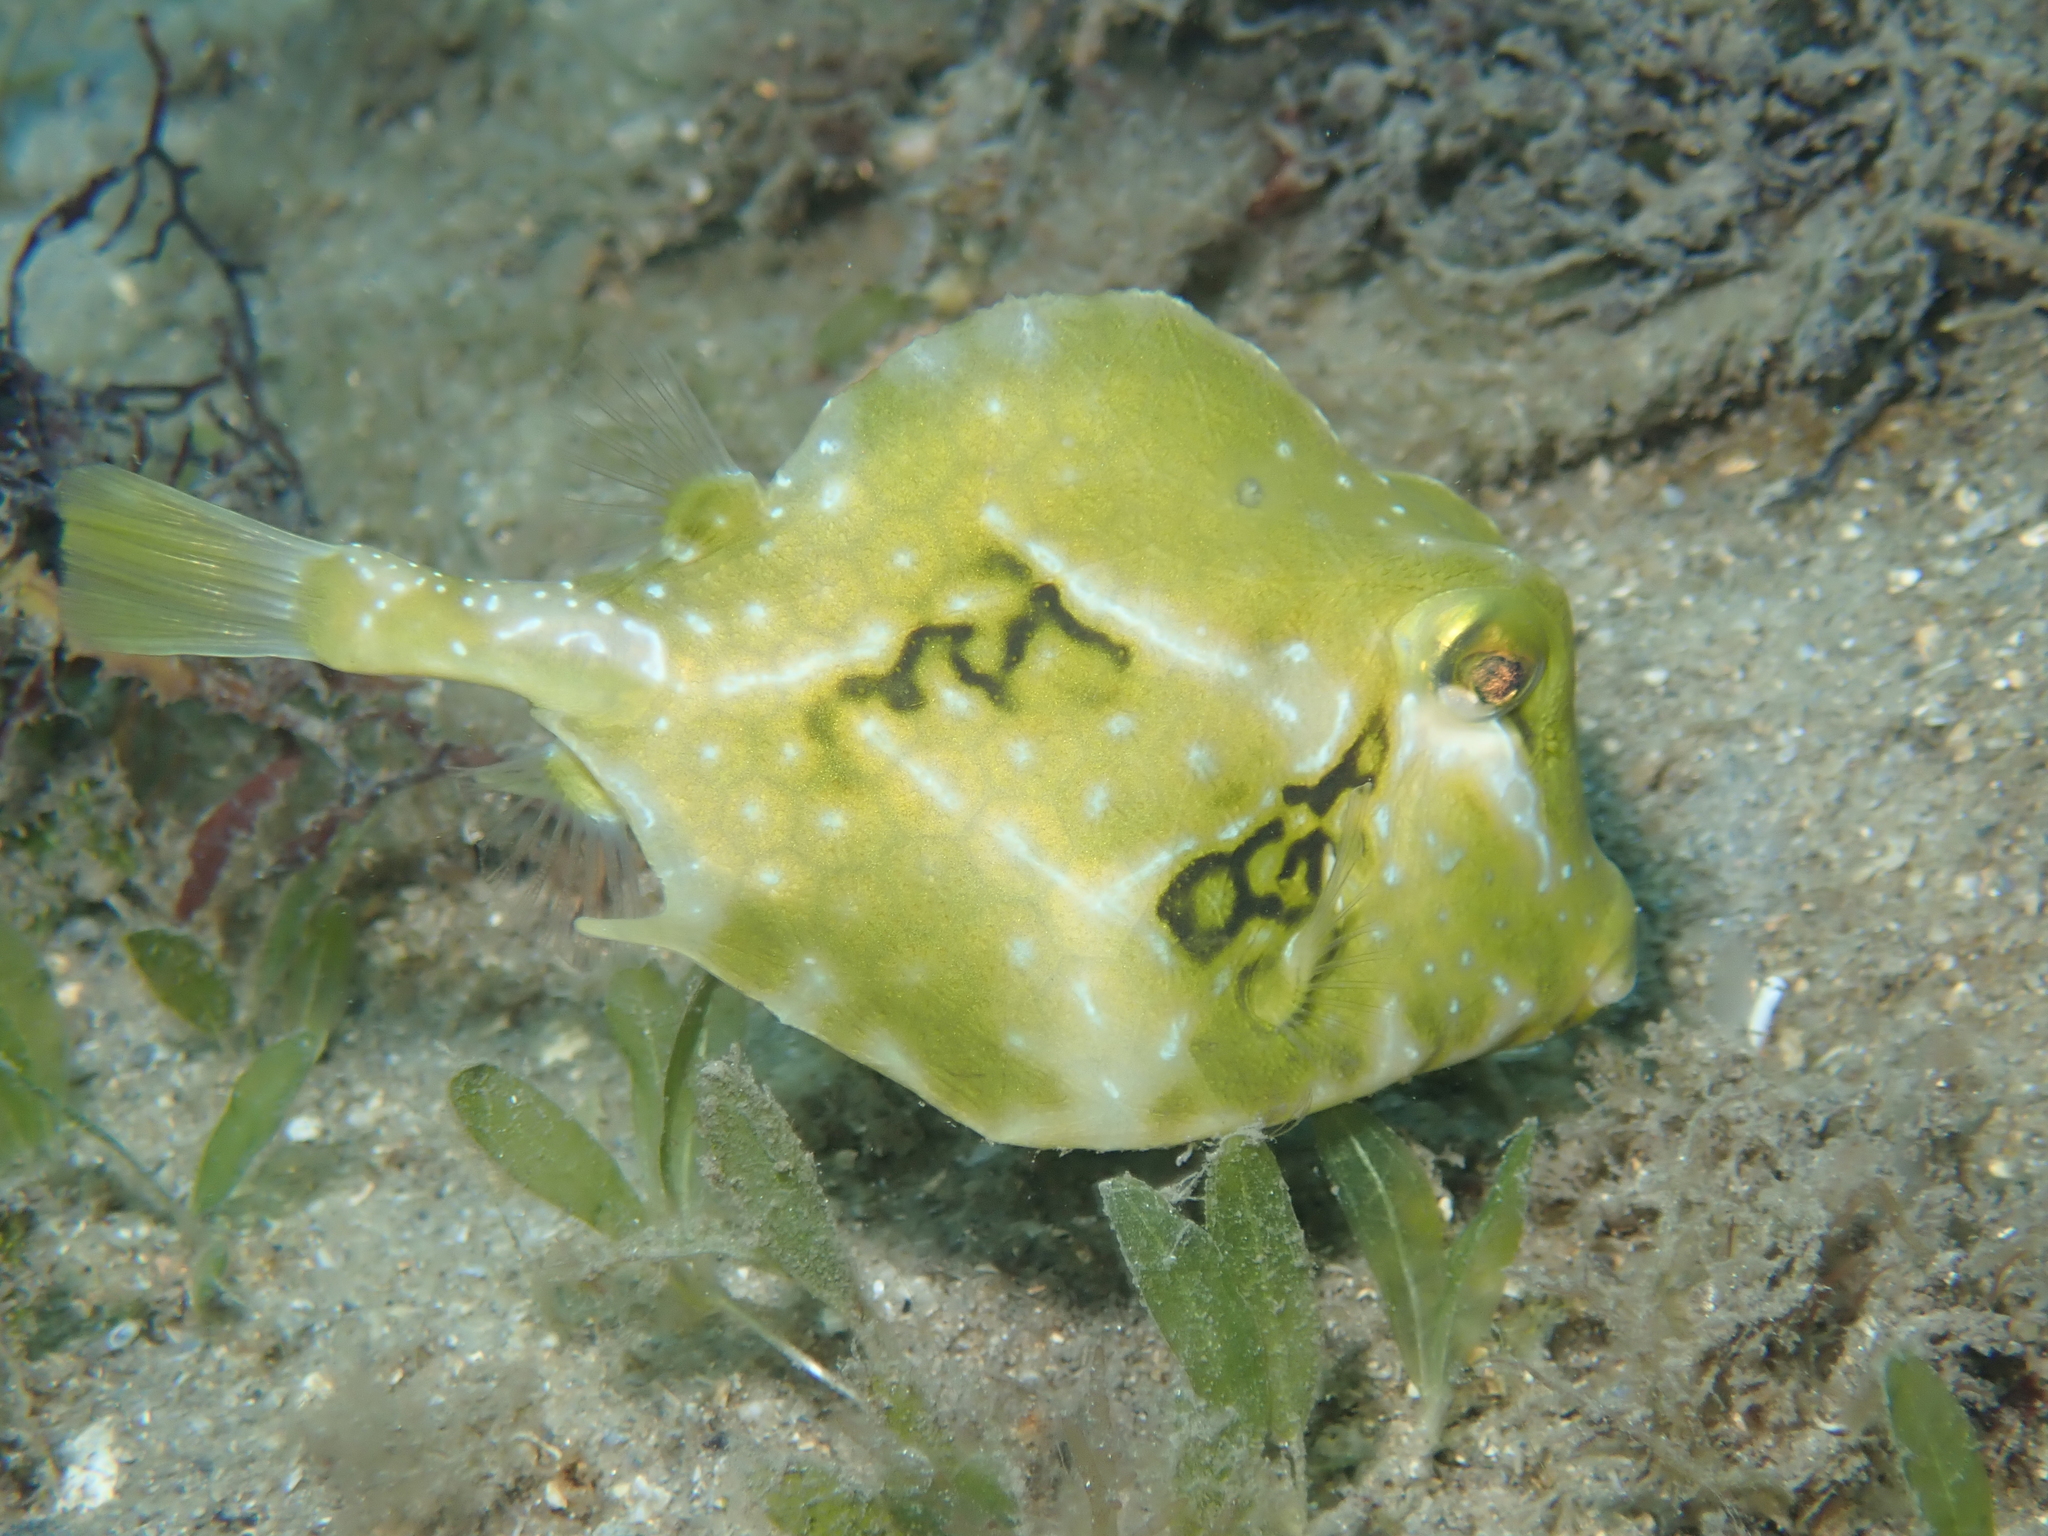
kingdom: Animalia
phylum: Chordata
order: Tetraodontiformes
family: Ostraciidae
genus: Lactophrys
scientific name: Lactophrys trigonus
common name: Buffalo trunkfish
